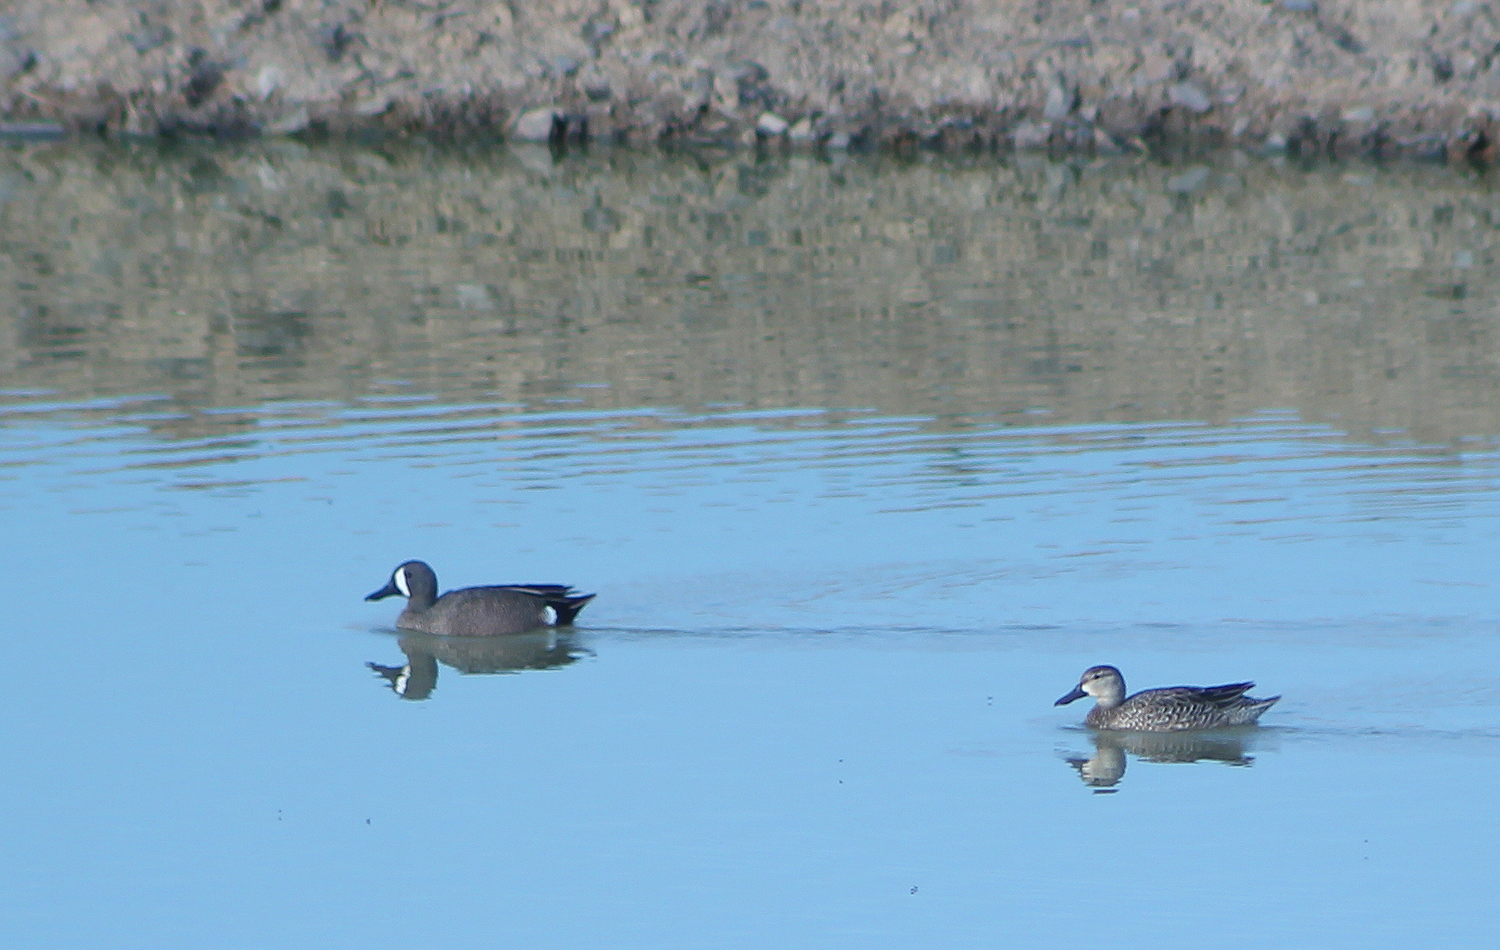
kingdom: Animalia
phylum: Chordata
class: Aves
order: Anseriformes
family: Anatidae
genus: Spatula
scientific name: Spatula discors
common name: Blue-winged teal
